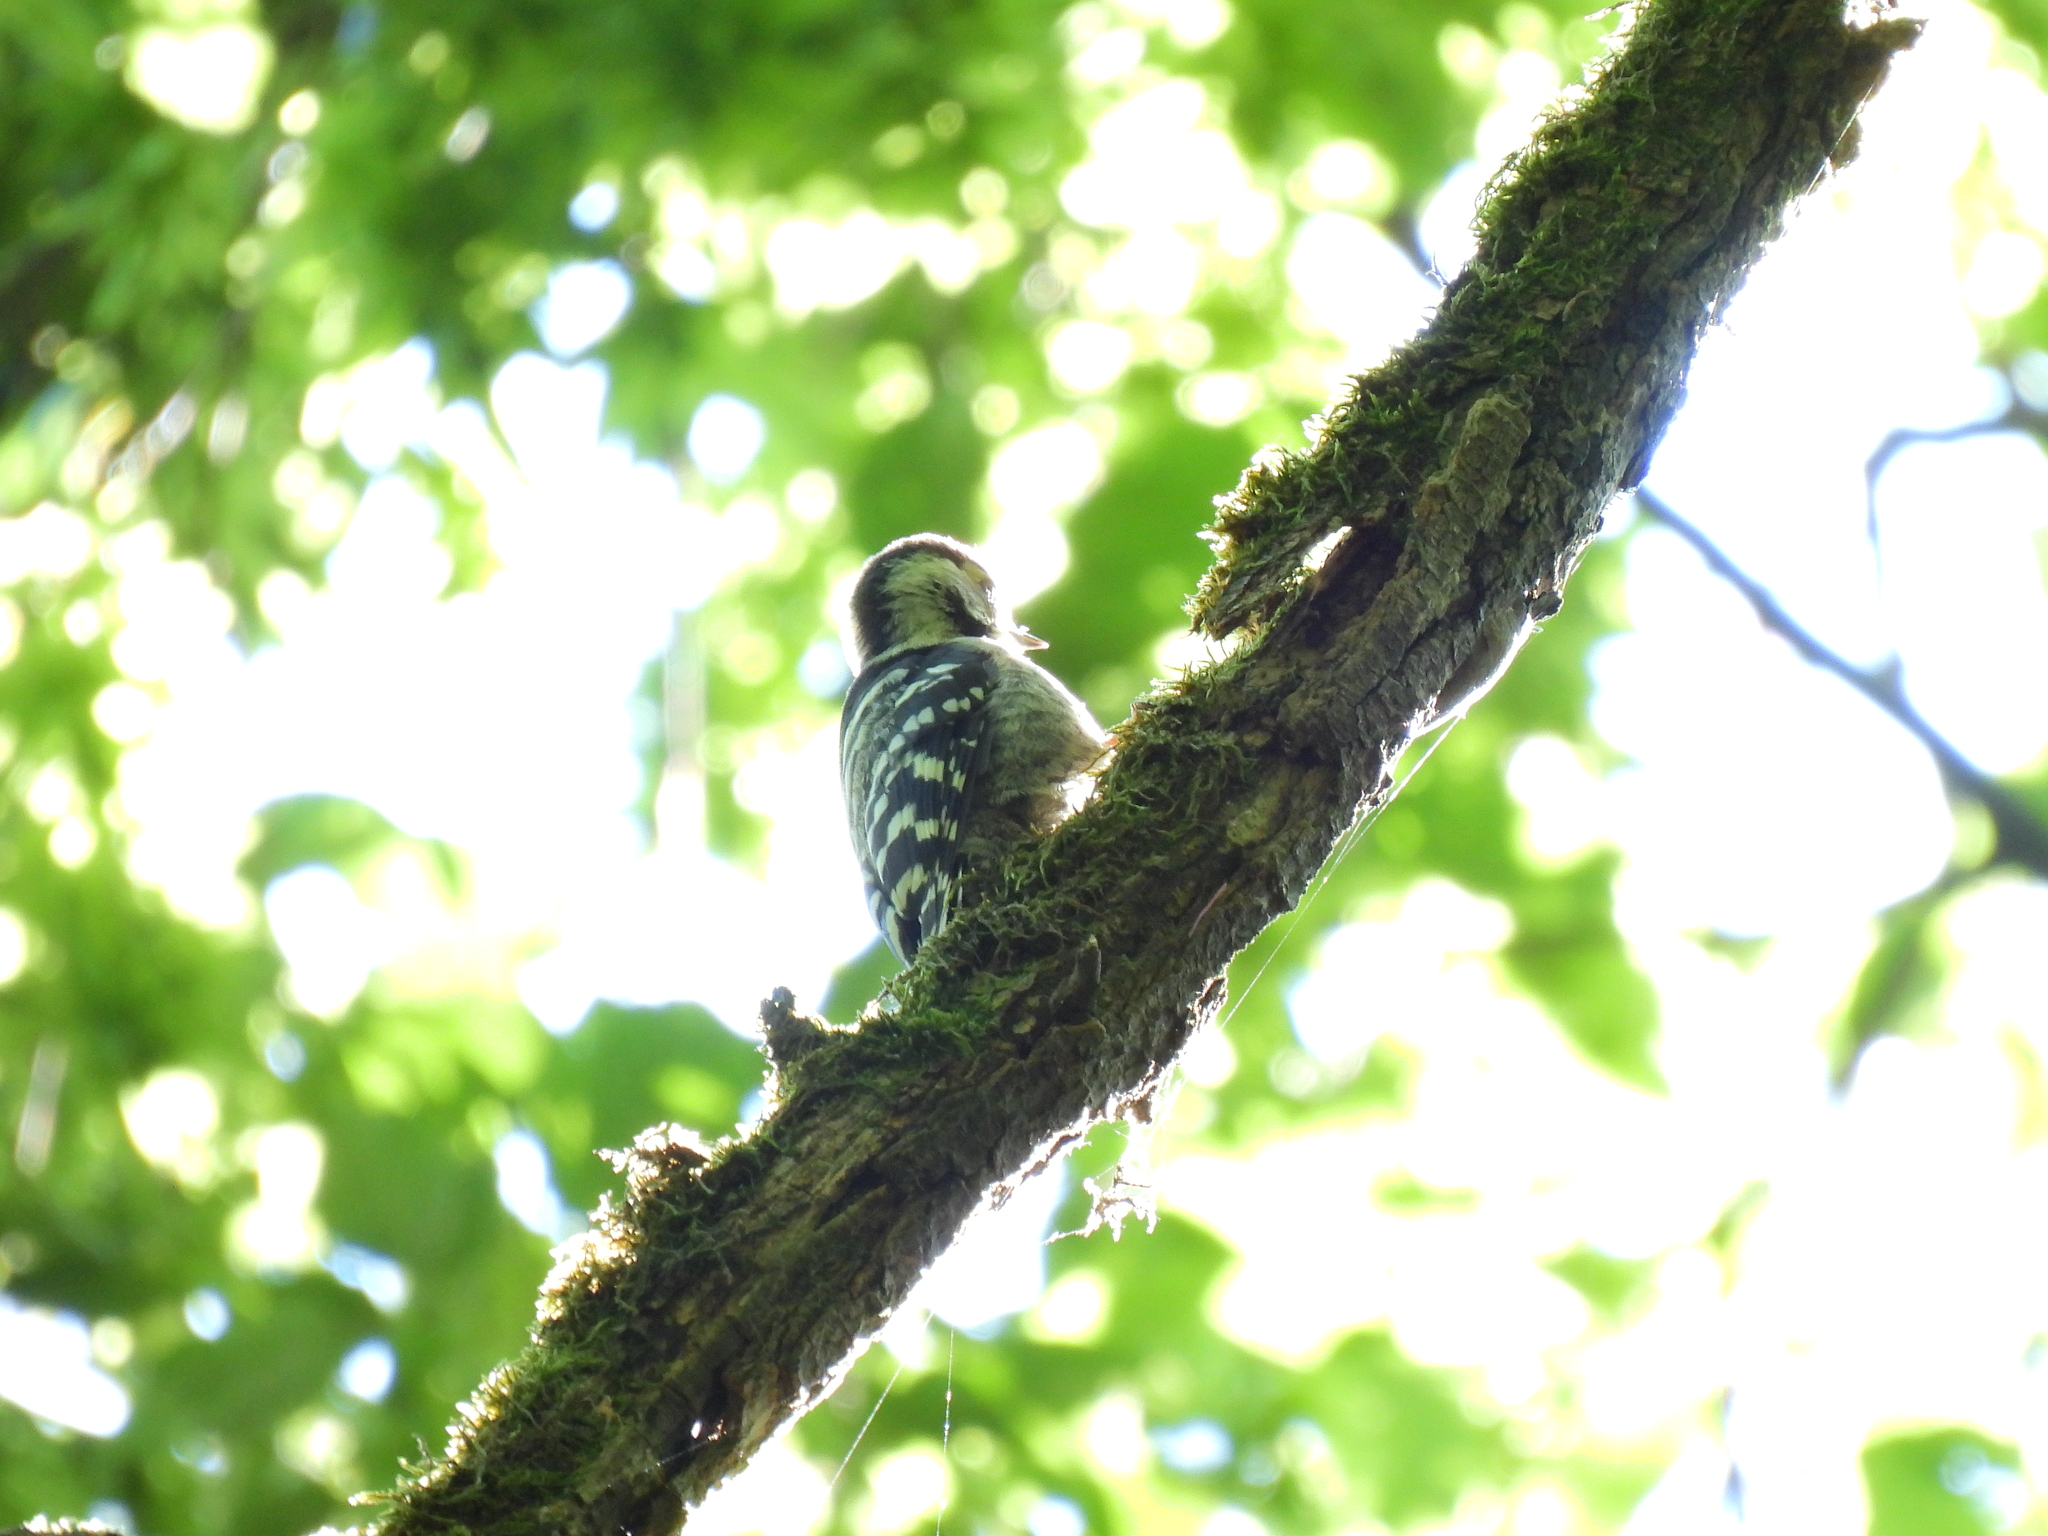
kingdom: Animalia
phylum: Chordata
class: Aves
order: Piciformes
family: Picidae
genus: Dryobates
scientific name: Dryobates minor
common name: Lesser spotted woodpecker
